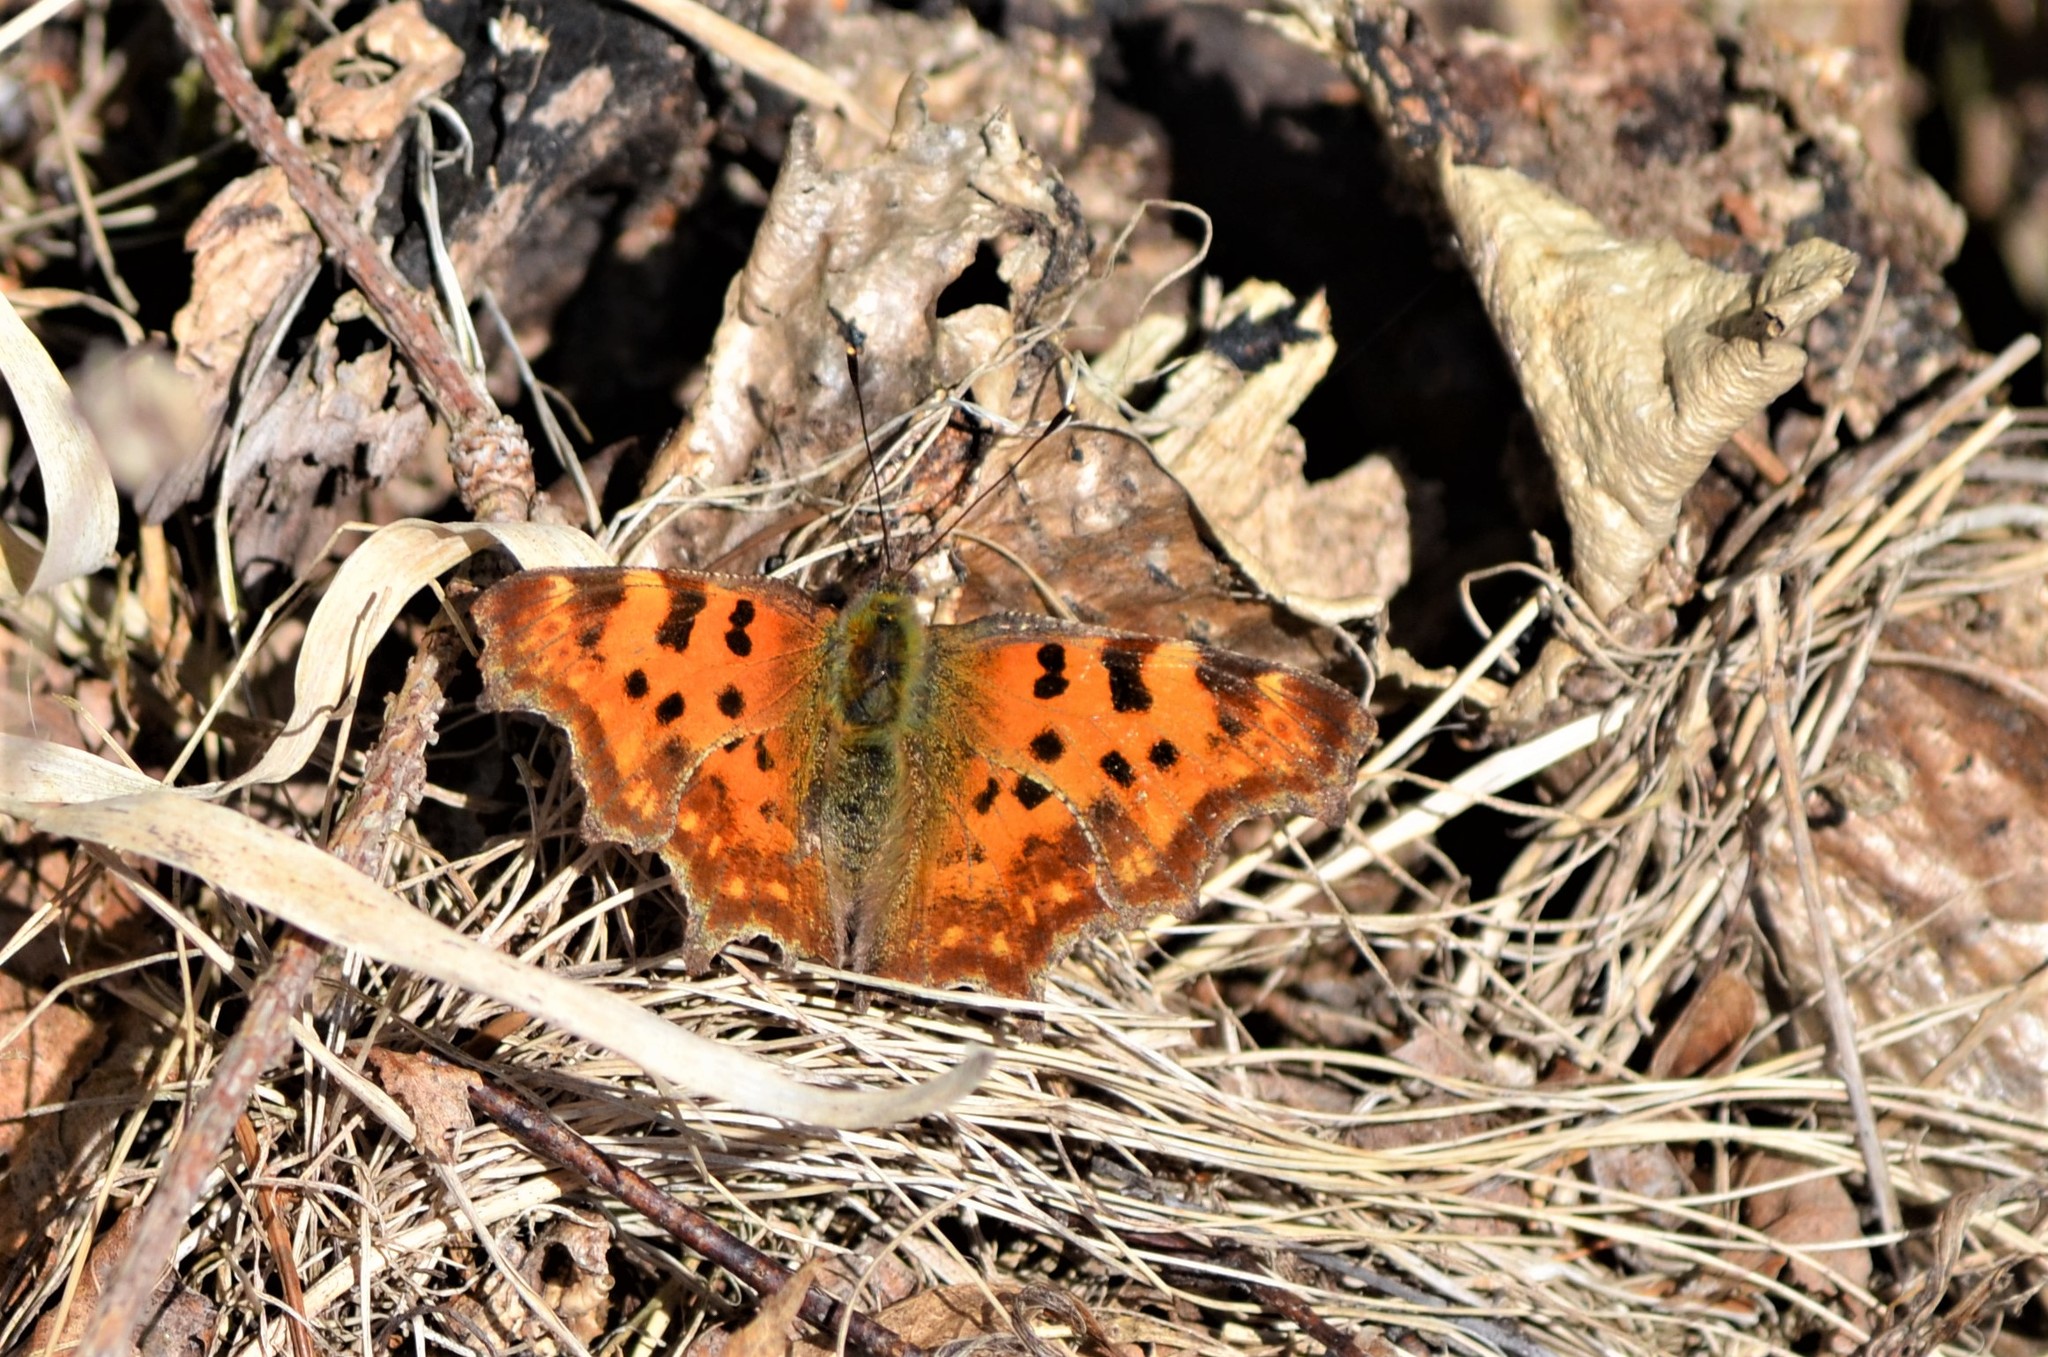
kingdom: Animalia
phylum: Arthropoda
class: Insecta
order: Lepidoptera
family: Nymphalidae
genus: Polygonia
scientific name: Polygonia c-album
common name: Comma
